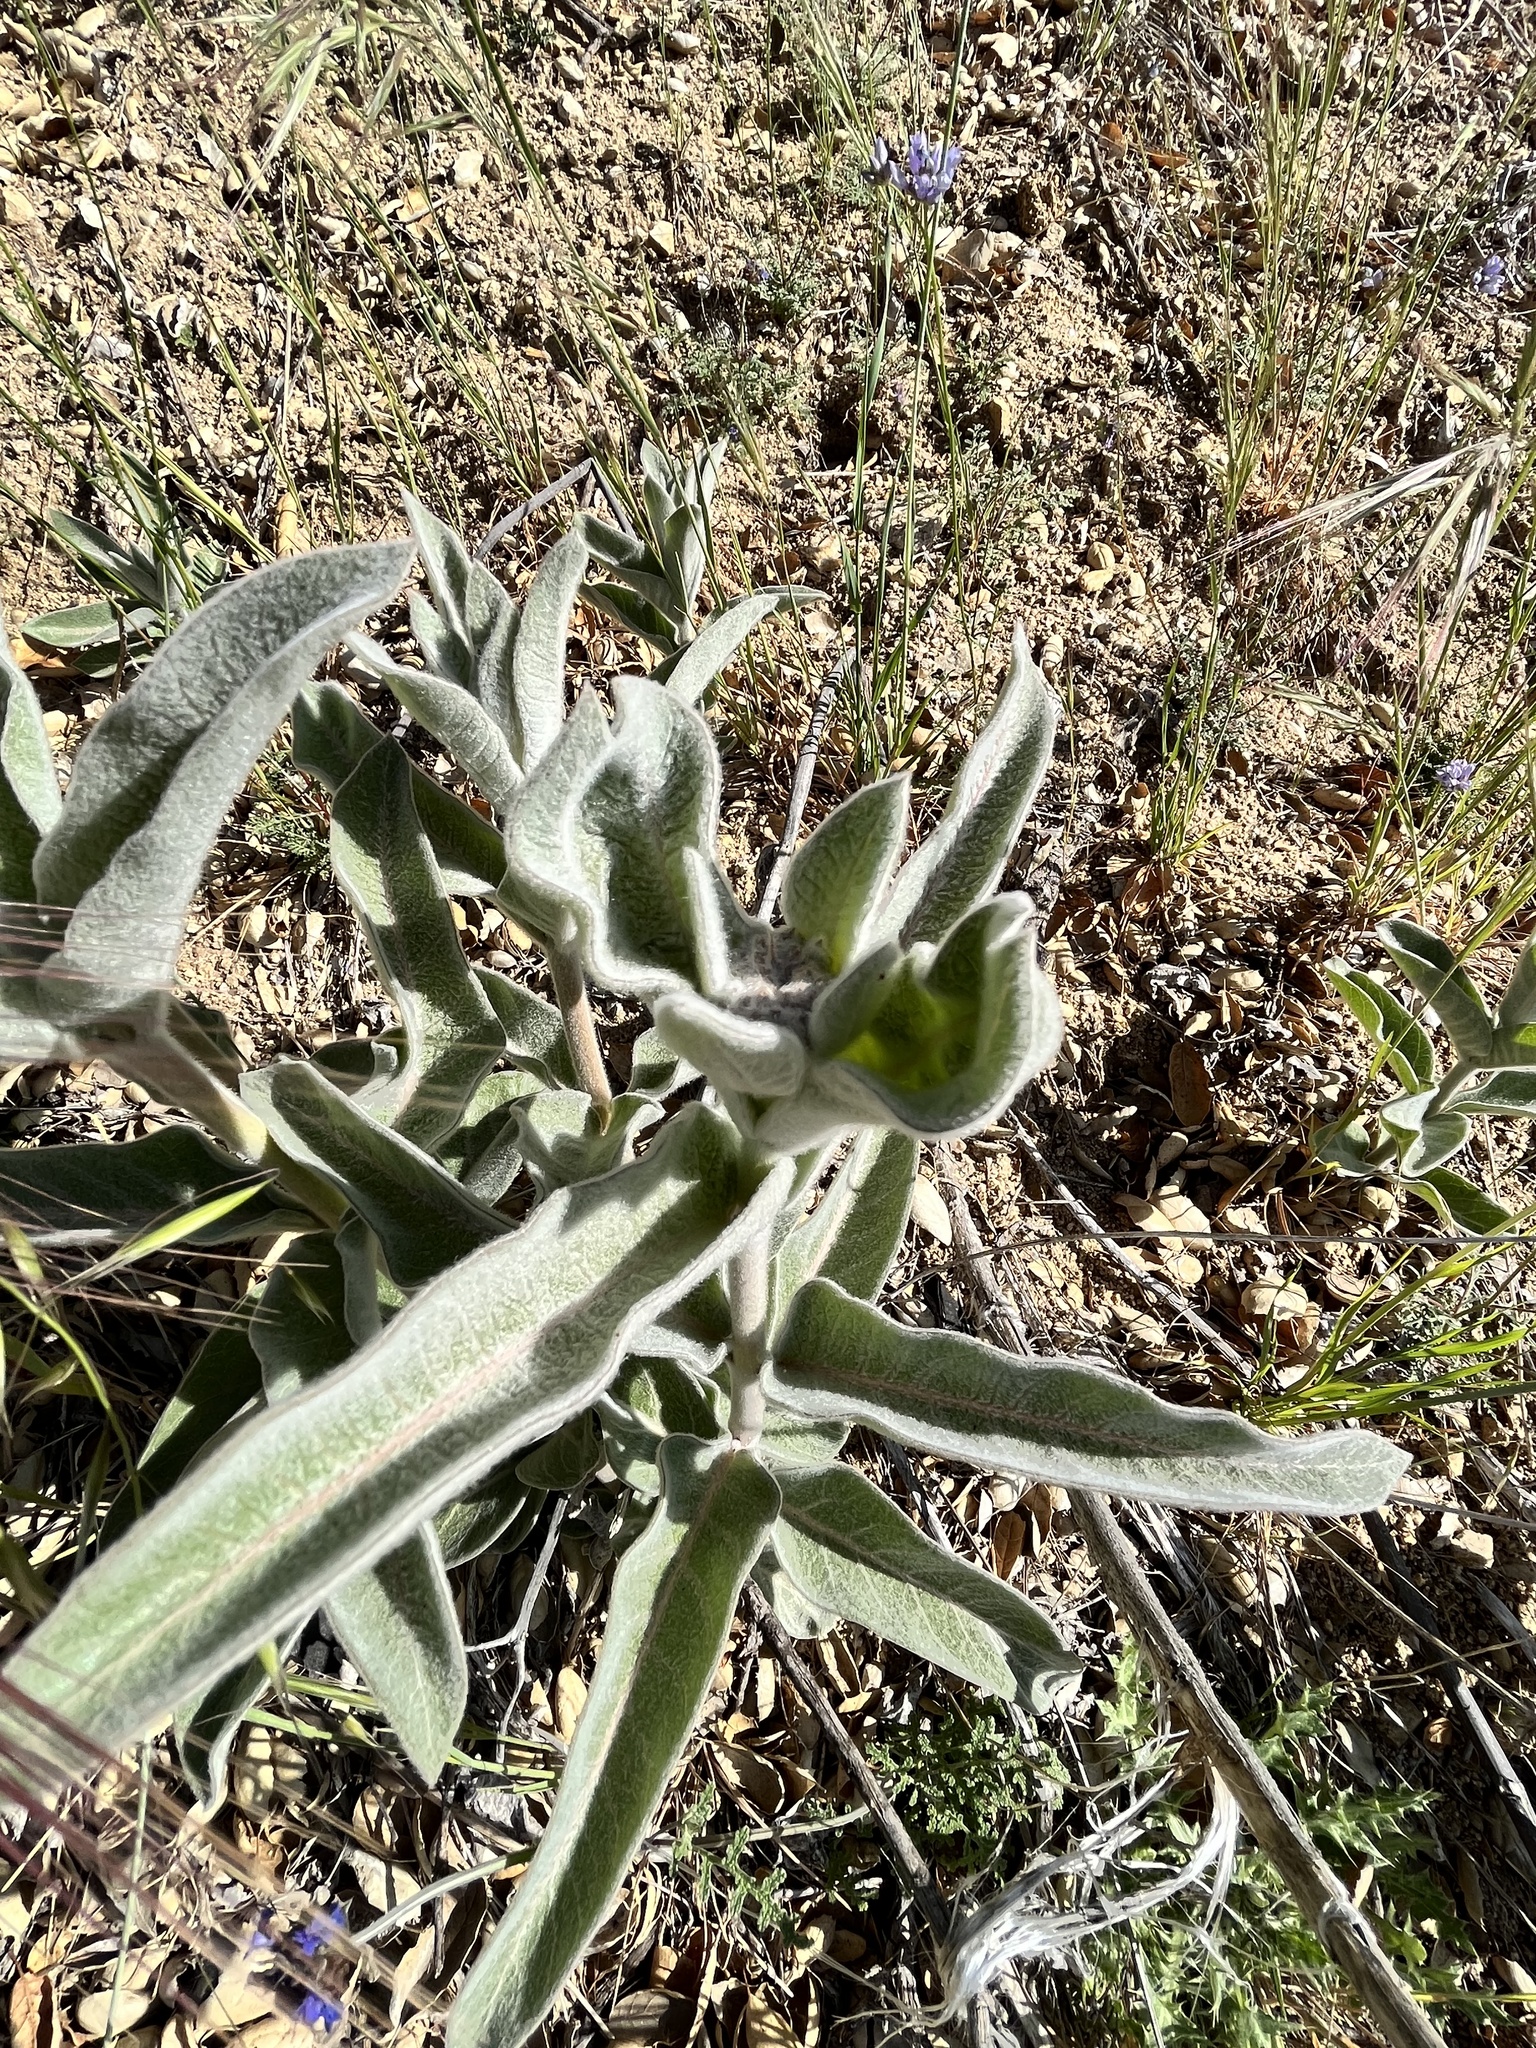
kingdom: Plantae
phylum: Tracheophyta
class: Magnoliopsida
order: Gentianales
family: Apocynaceae
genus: Asclepias
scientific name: Asclepias eriocarpa
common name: Indian milkweed
